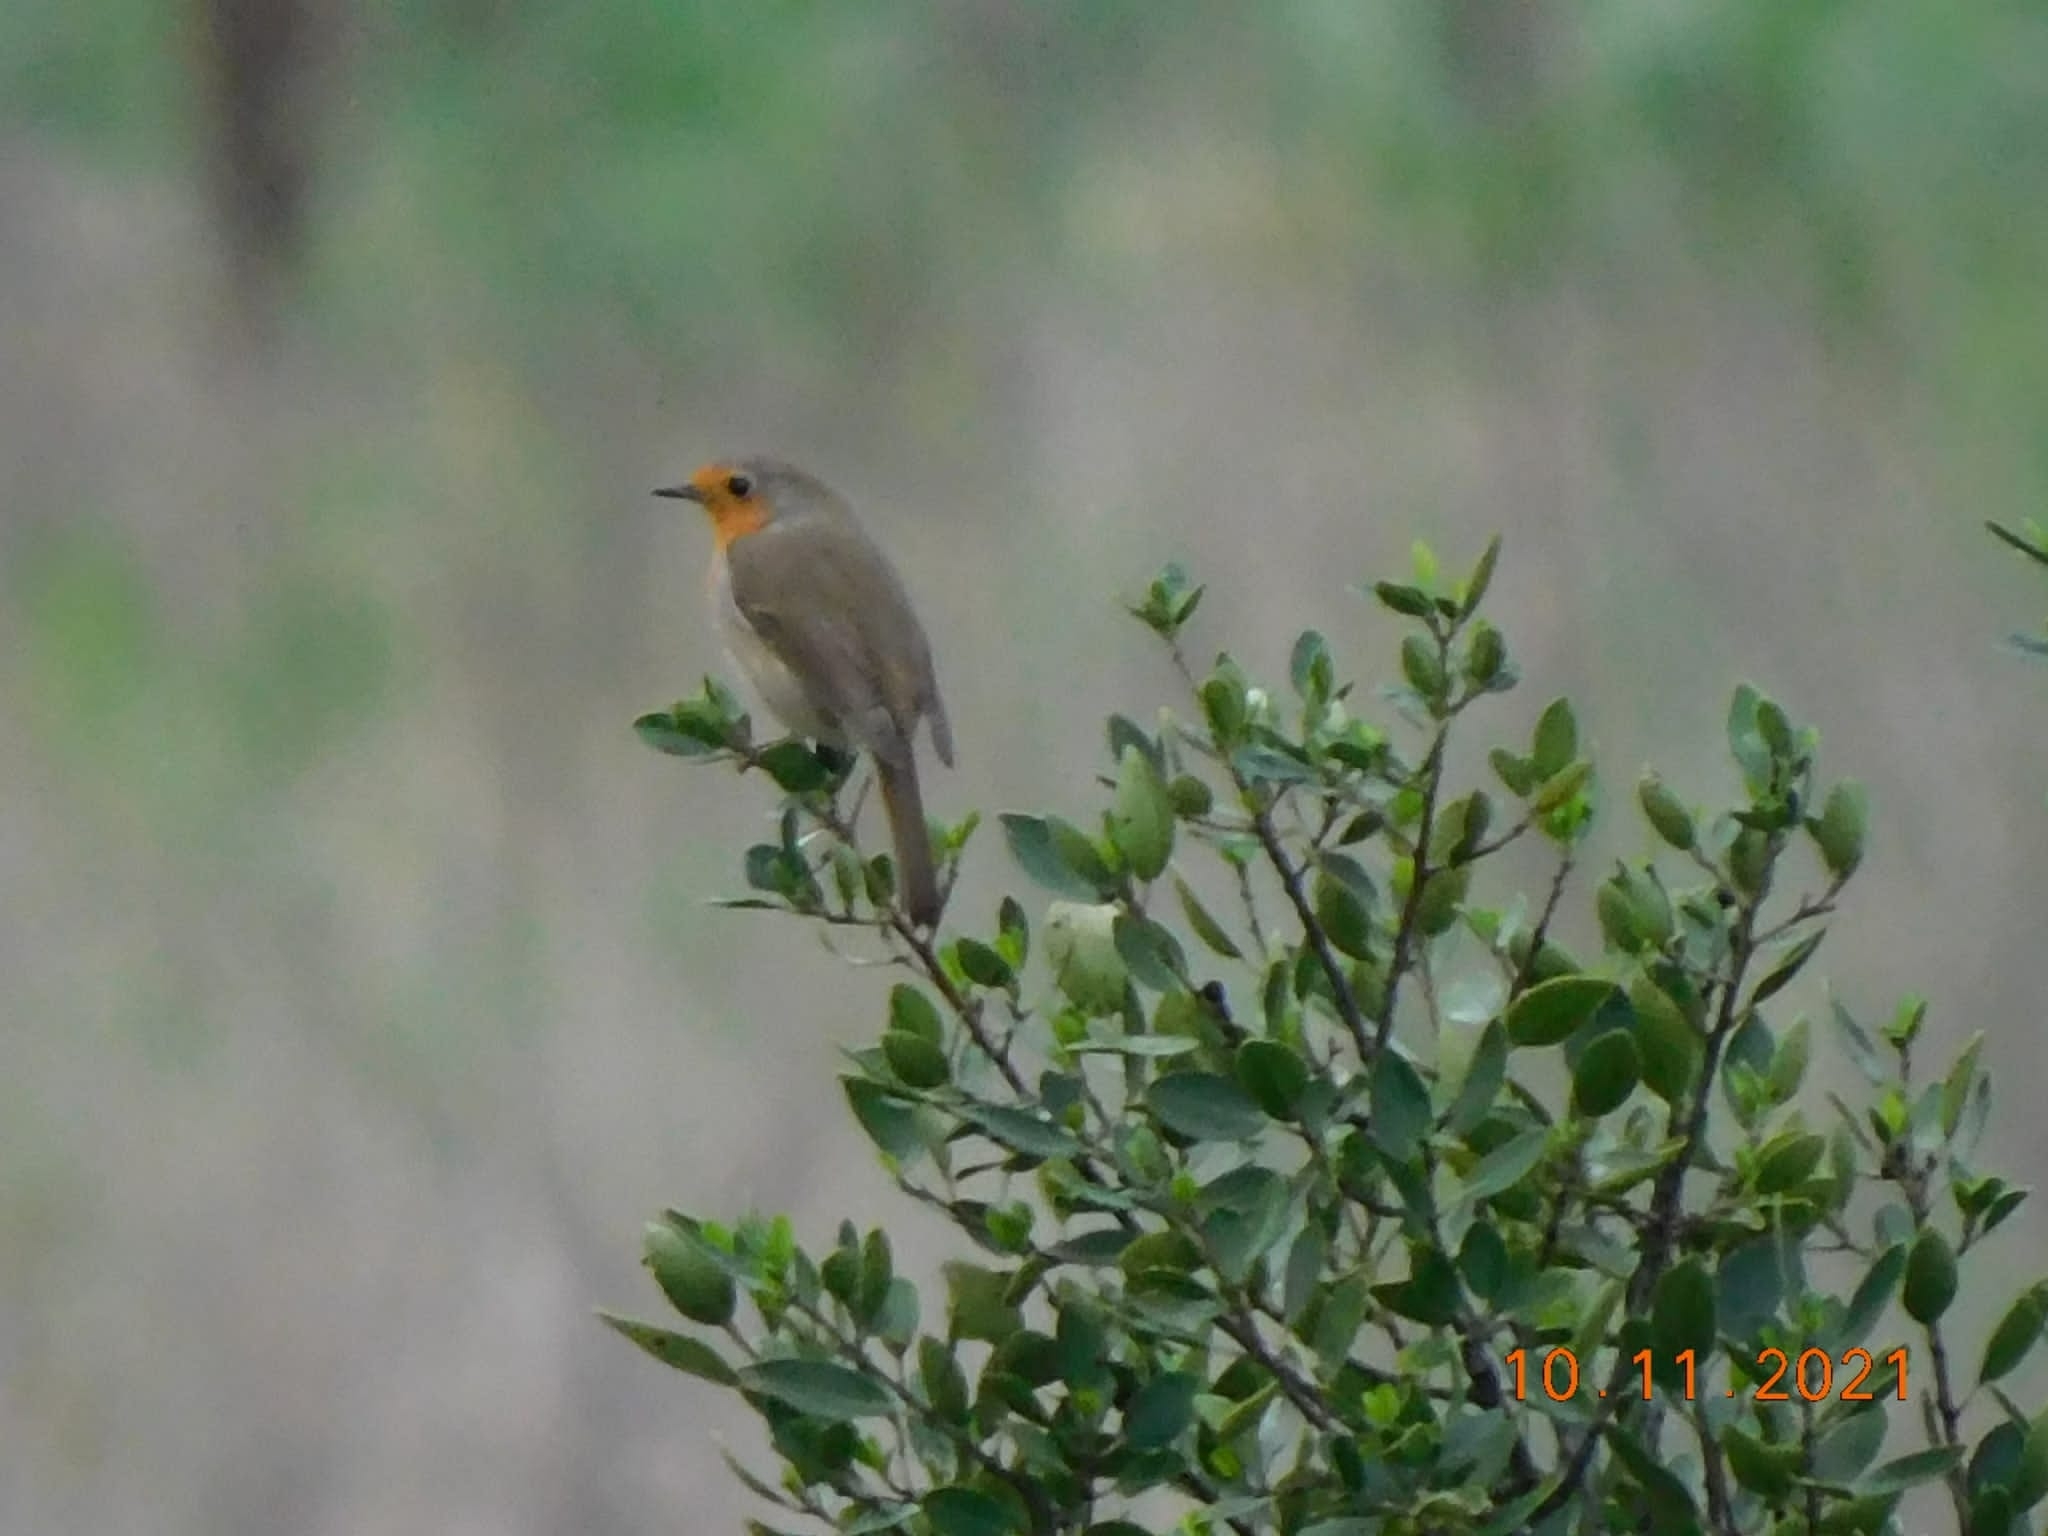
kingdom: Animalia
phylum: Chordata
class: Aves
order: Passeriformes
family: Muscicapidae
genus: Erithacus
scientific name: Erithacus rubecula
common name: European robin
